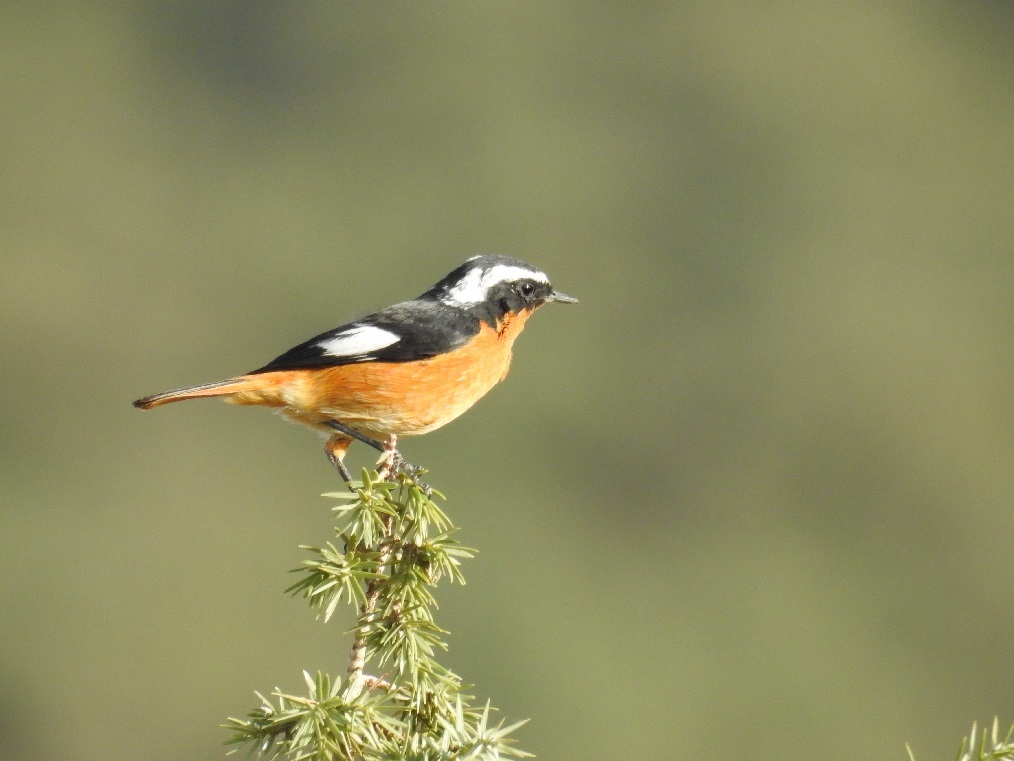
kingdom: Animalia
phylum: Chordata
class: Aves
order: Passeriformes
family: Muscicapidae
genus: Phoenicurus
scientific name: Phoenicurus moussieri
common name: Moussier's redstart
